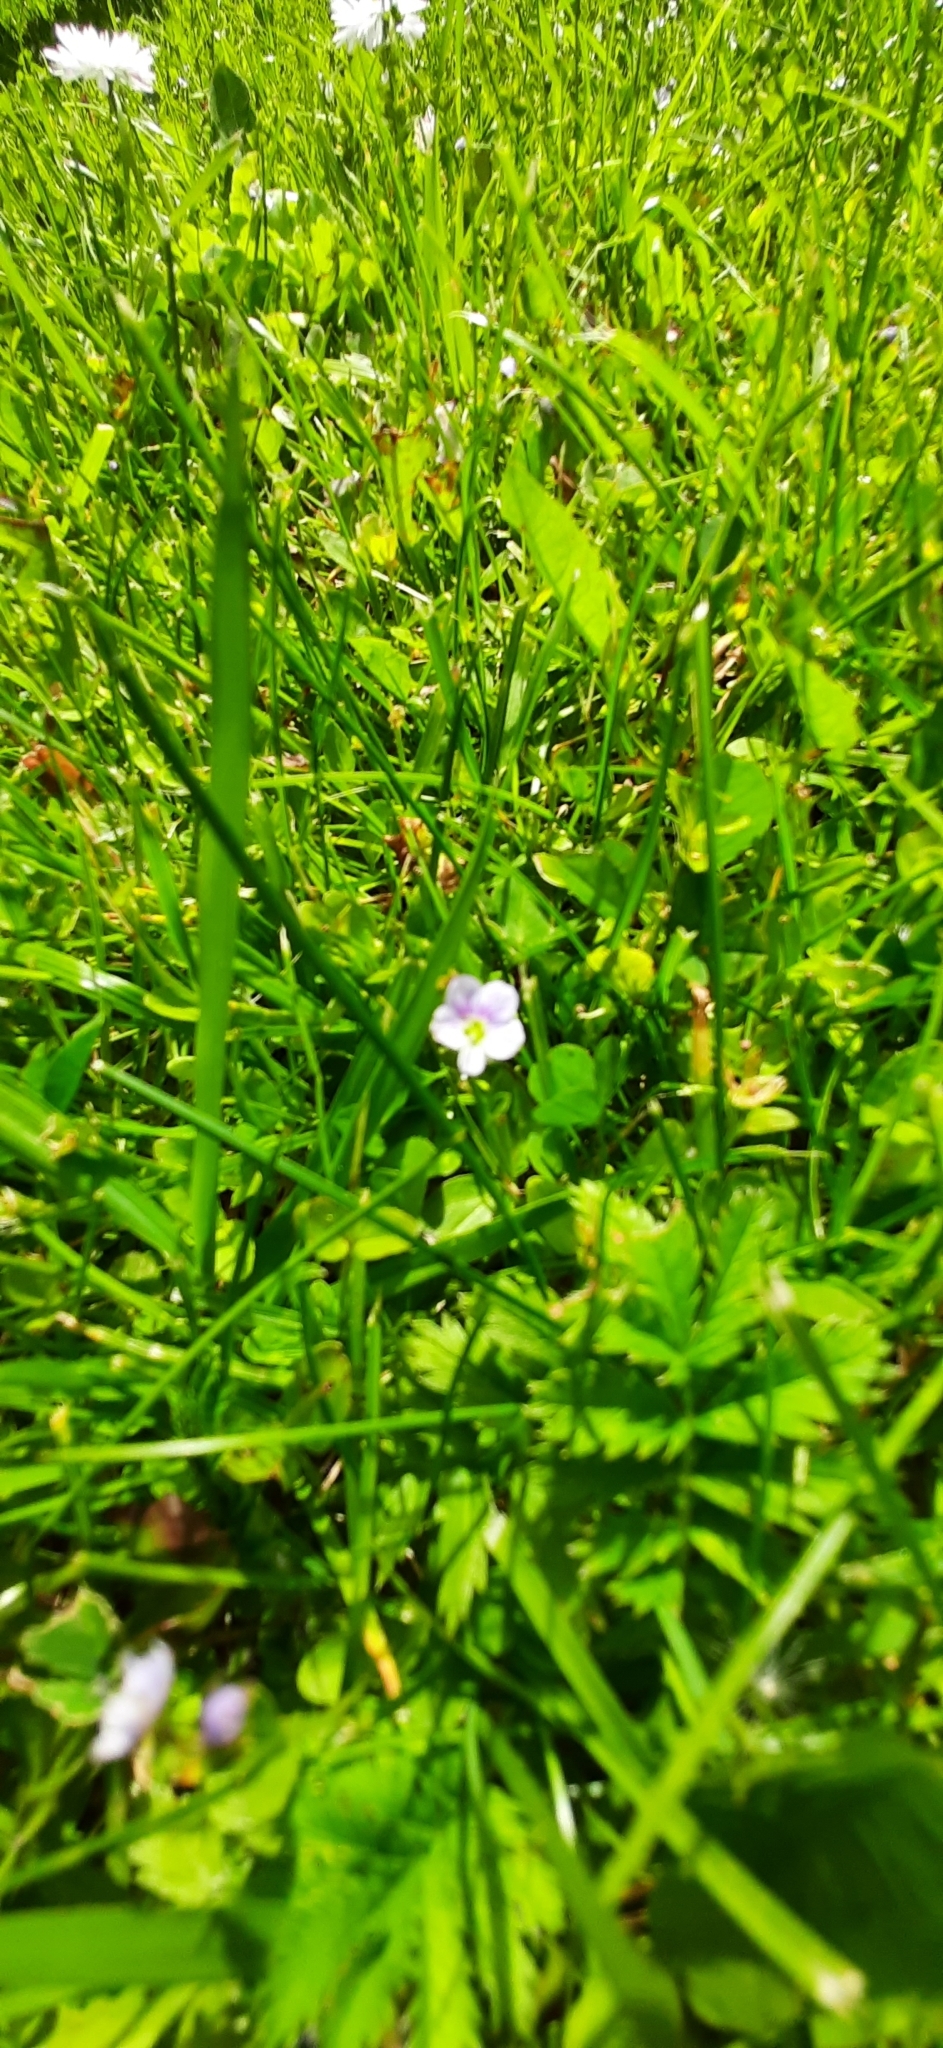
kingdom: Plantae
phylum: Tracheophyta
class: Magnoliopsida
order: Lamiales
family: Plantaginaceae
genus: Veronica
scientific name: Veronica serpyllifolia
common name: Thyme-leaved speedwell
